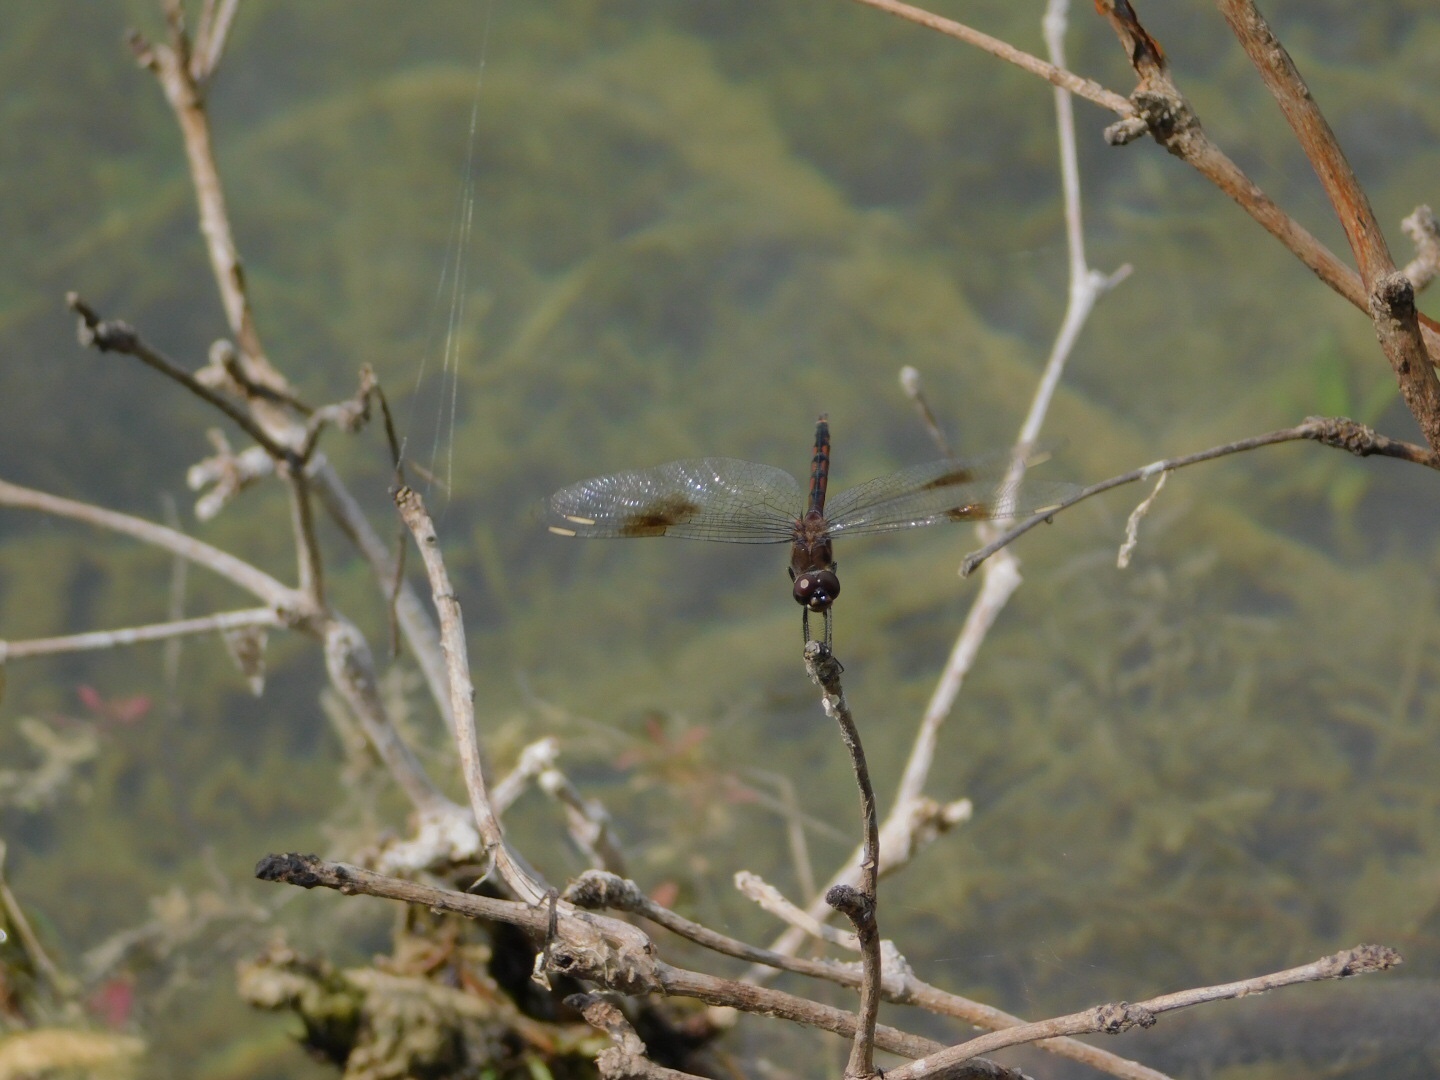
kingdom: Animalia
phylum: Arthropoda
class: Insecta
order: Odonata
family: Libellulidae
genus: Brachymesia
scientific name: Brachymesia gravida
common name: Four-spotted pennant
